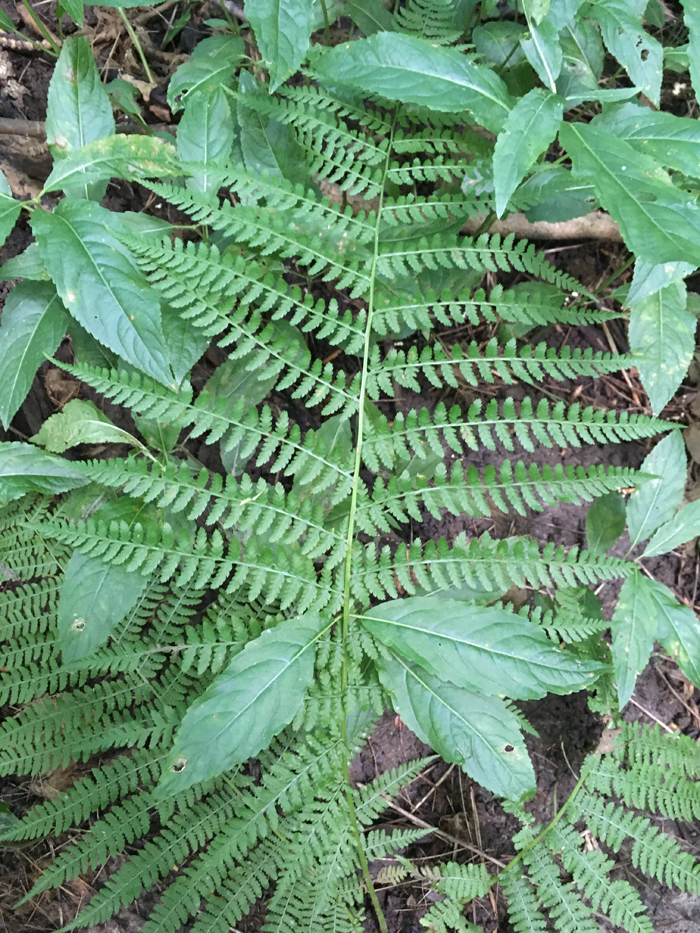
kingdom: Plantae
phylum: Tracheophyta
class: Polypodiopsida
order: Polypodiales
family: Athyriaceae
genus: Athyrium
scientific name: Athyrium filix-femina
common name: Lady fern
